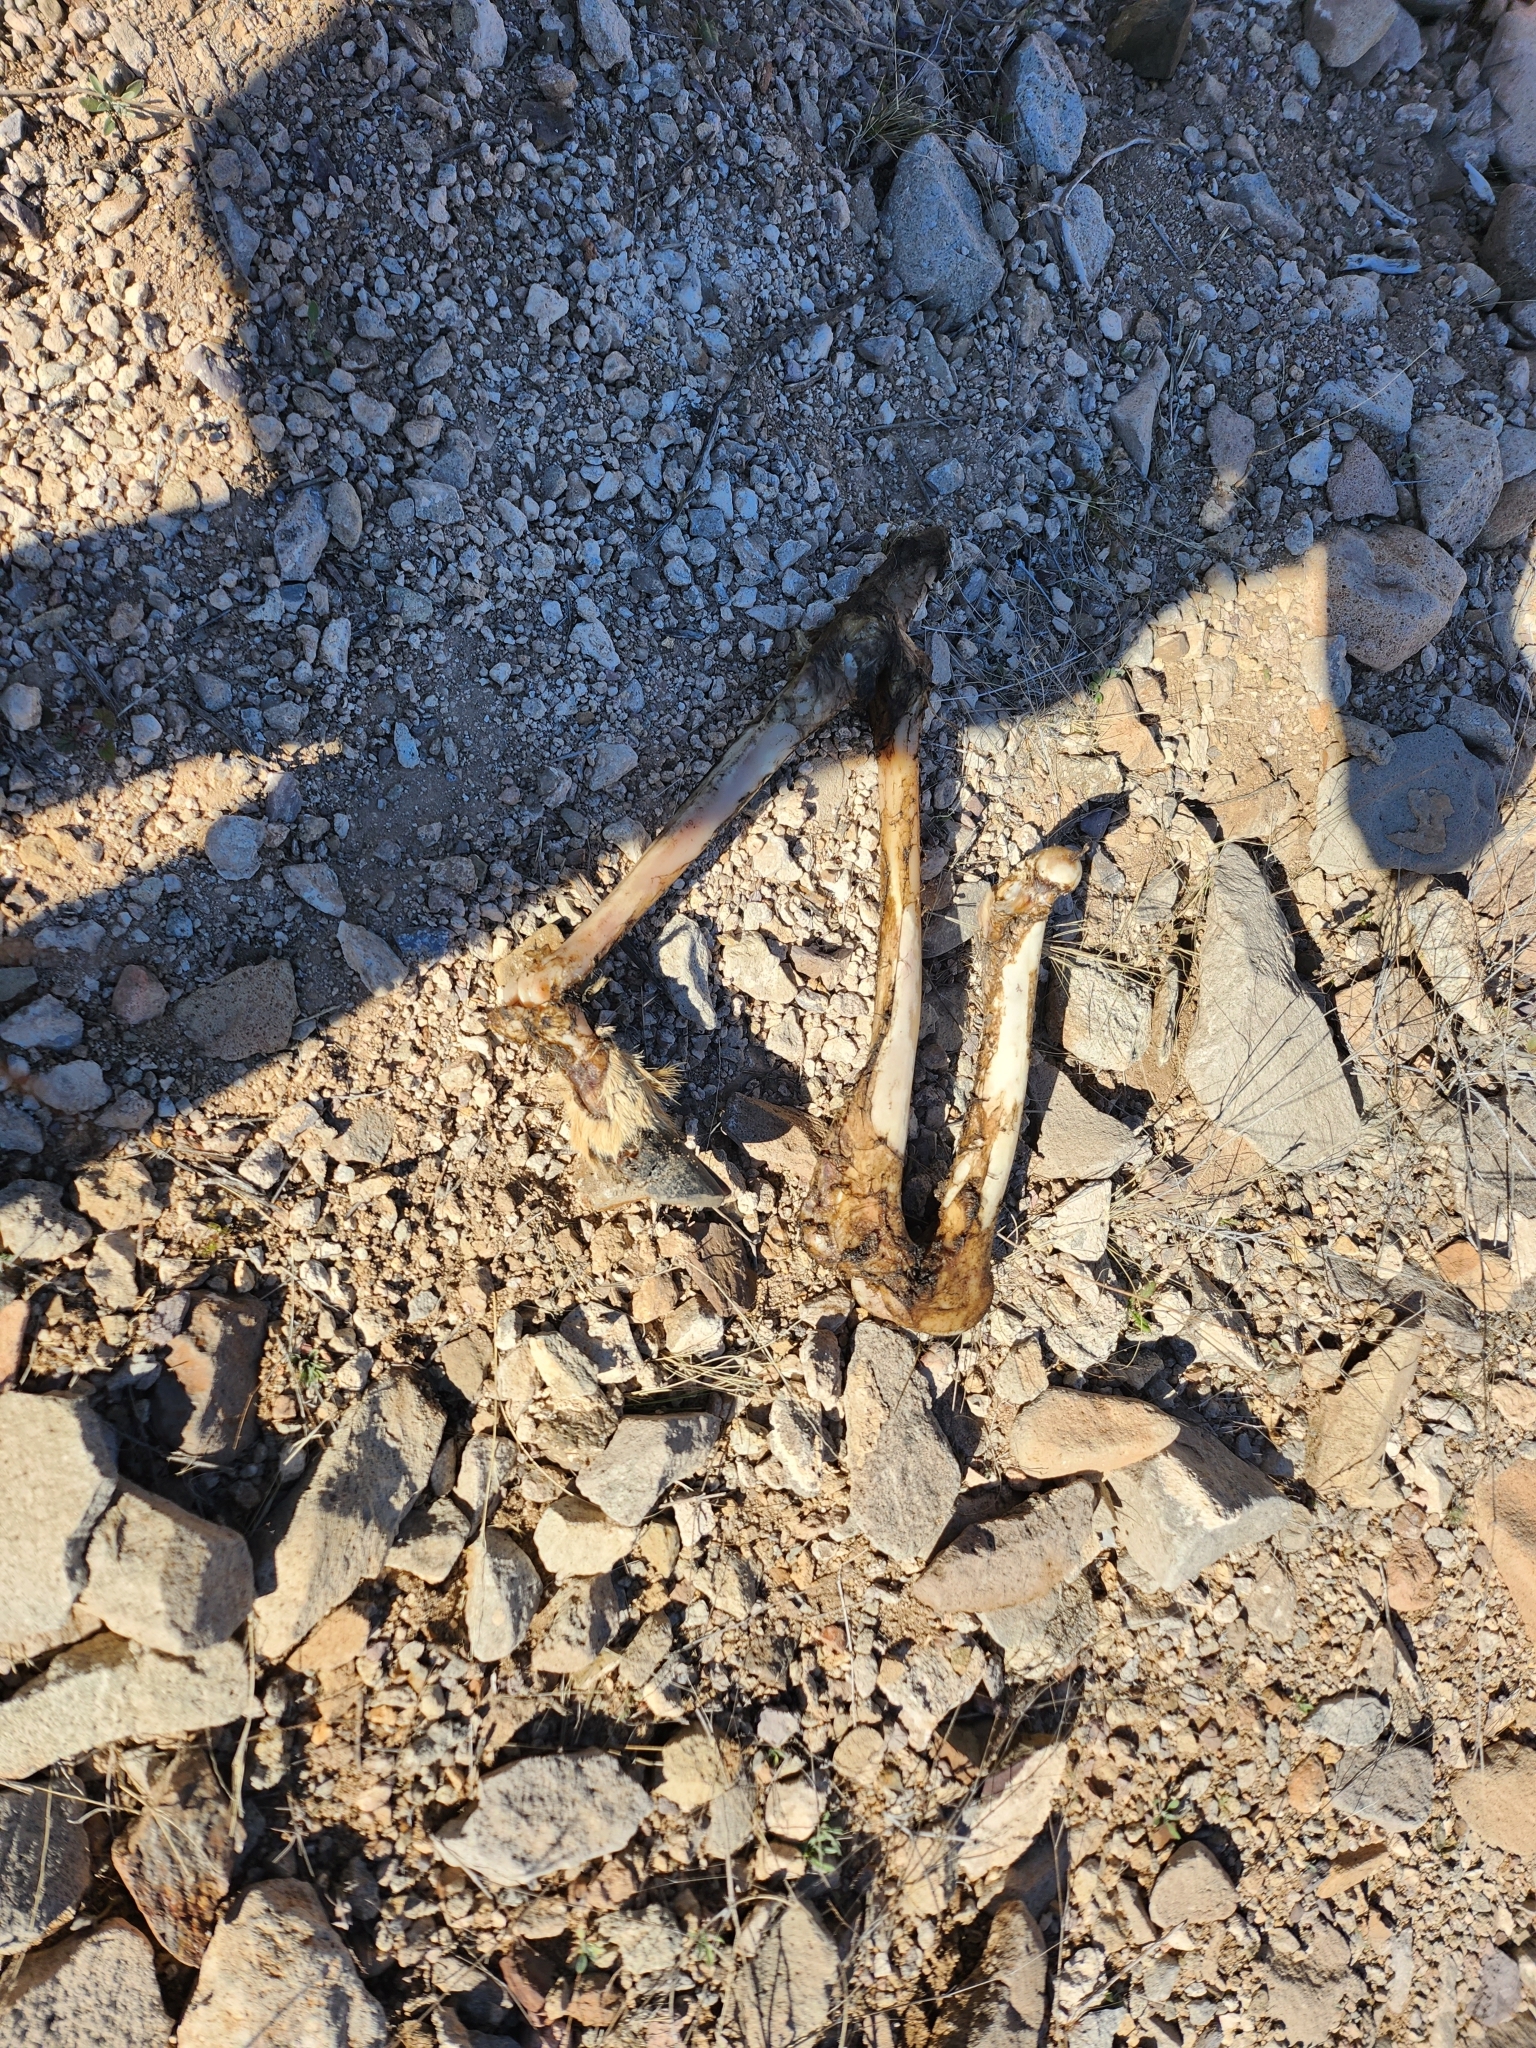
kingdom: Animalia
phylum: Chordata
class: Mammalia
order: Artiodactyla
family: Cervidae
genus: Odocoileus
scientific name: Odocoileus hemionus
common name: Mule deer
